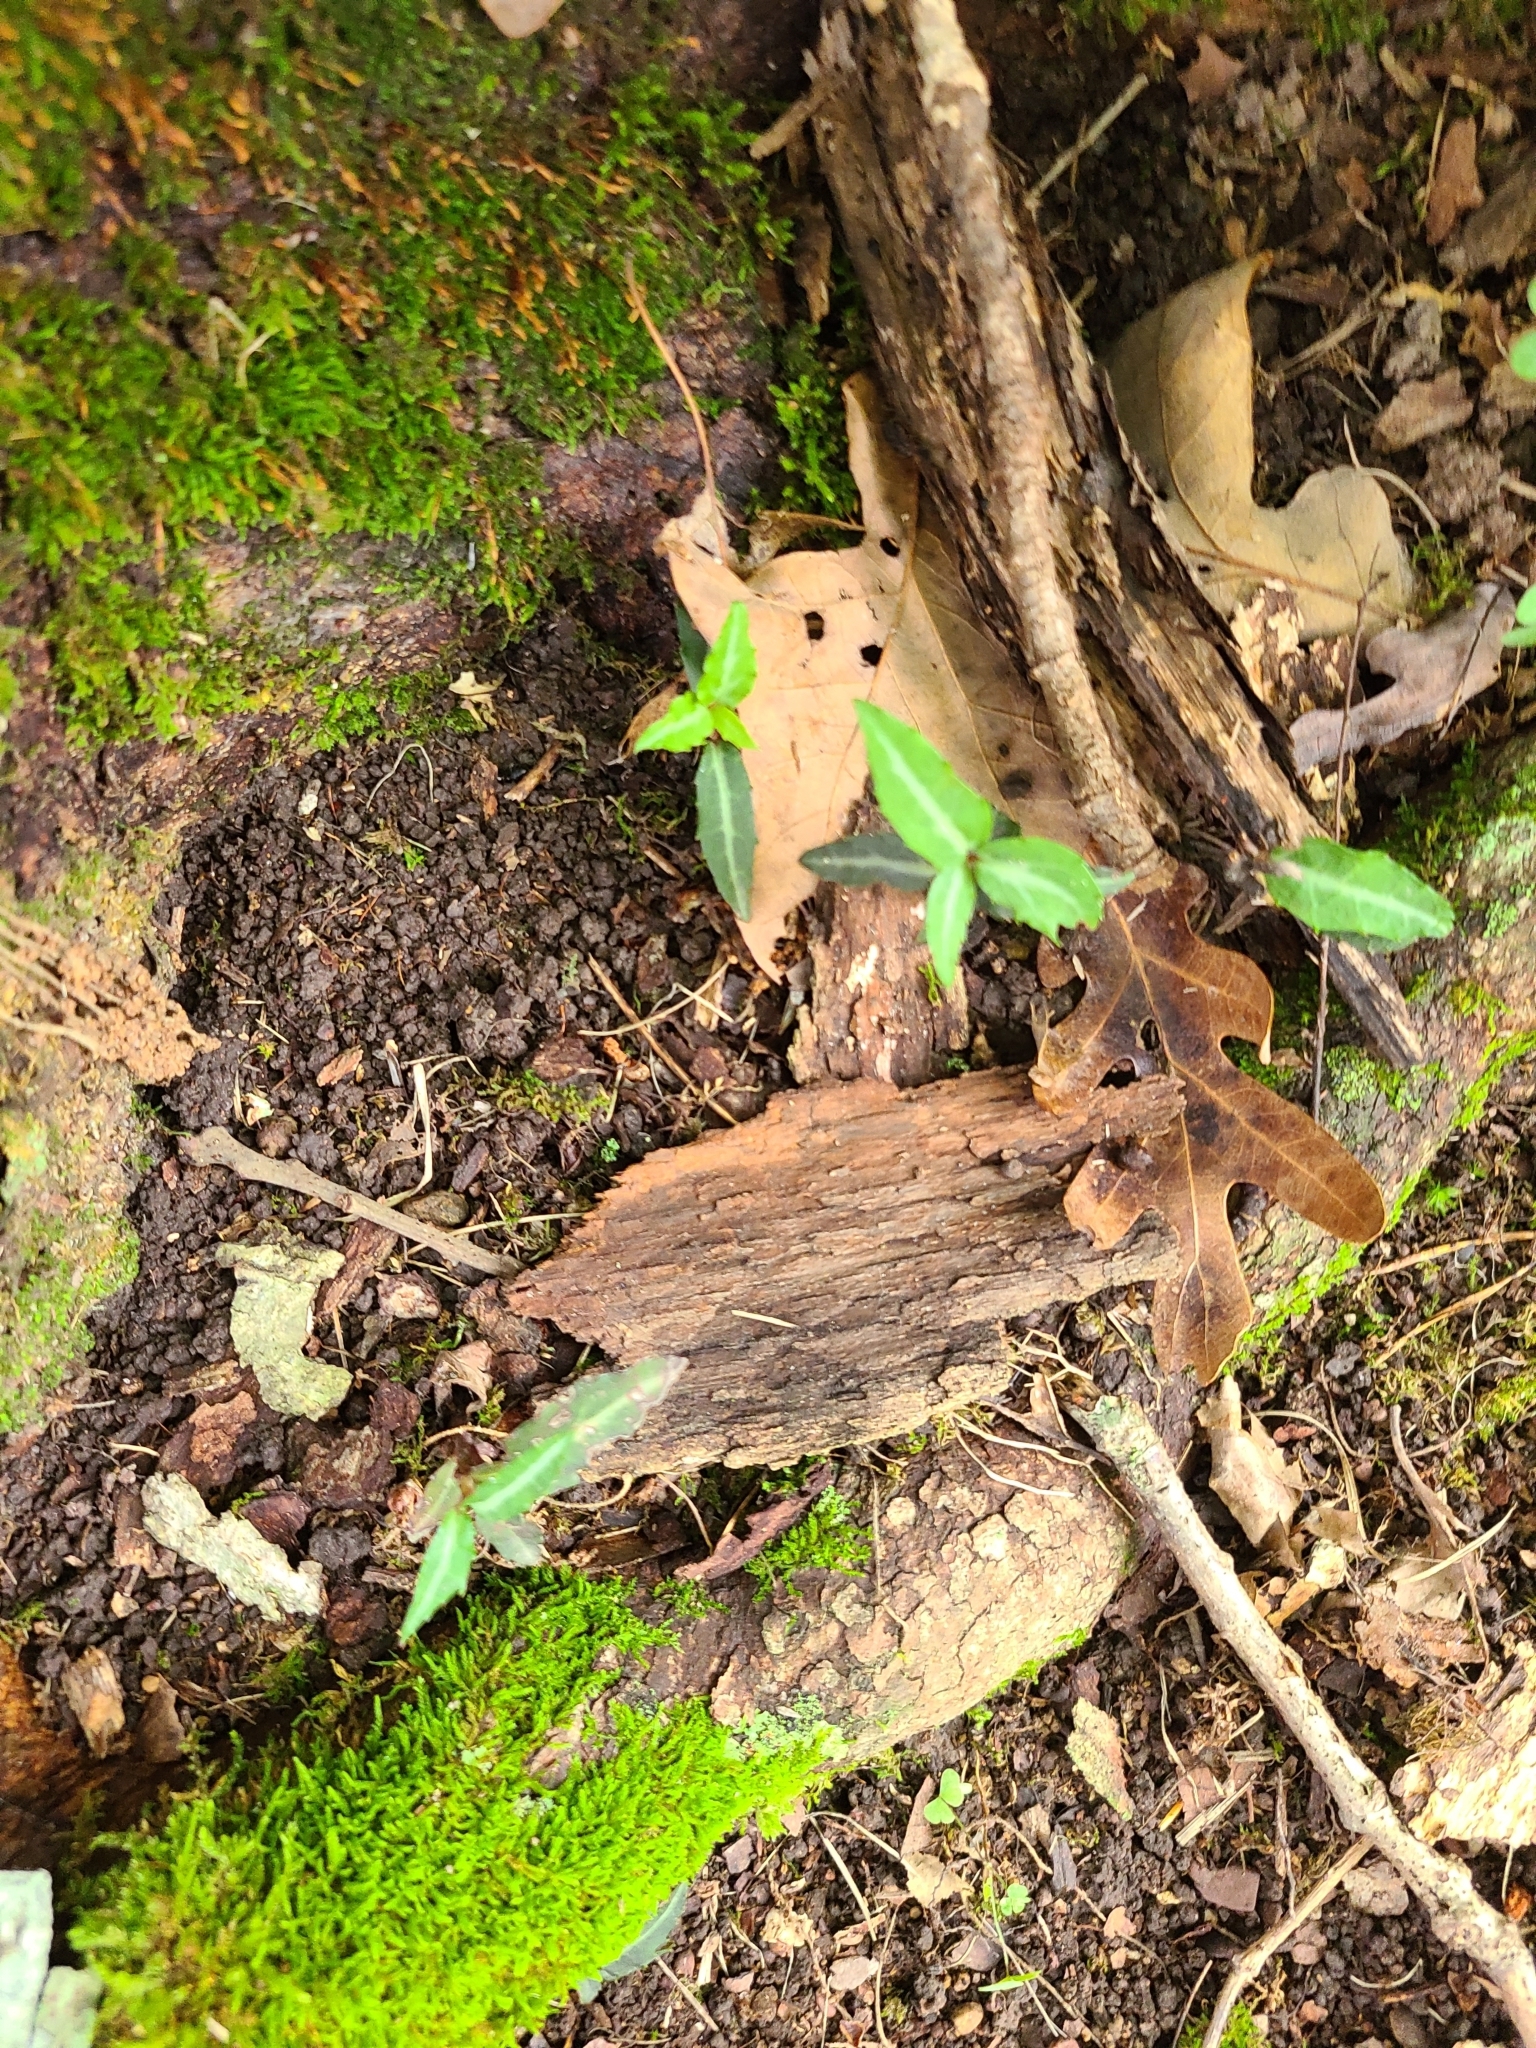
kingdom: Plantae
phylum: Tracheophyta
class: Magnoliopsida
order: Ericales
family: Ericaceae
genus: Chimaphila
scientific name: Chimaphila maculata
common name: Spotted pipsissewa
